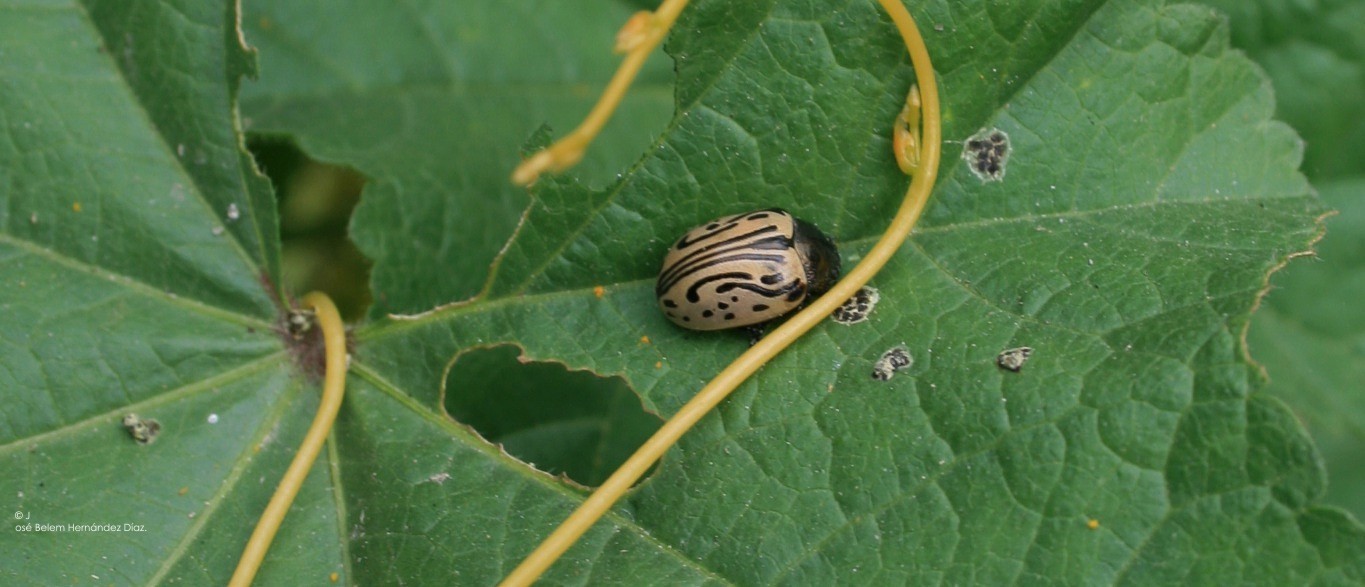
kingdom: Animalia
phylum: Arthropoda
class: Insecta
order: Coleoptera
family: Chrysomelidae
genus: Calligrapha
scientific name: Calligrapha dislocata
